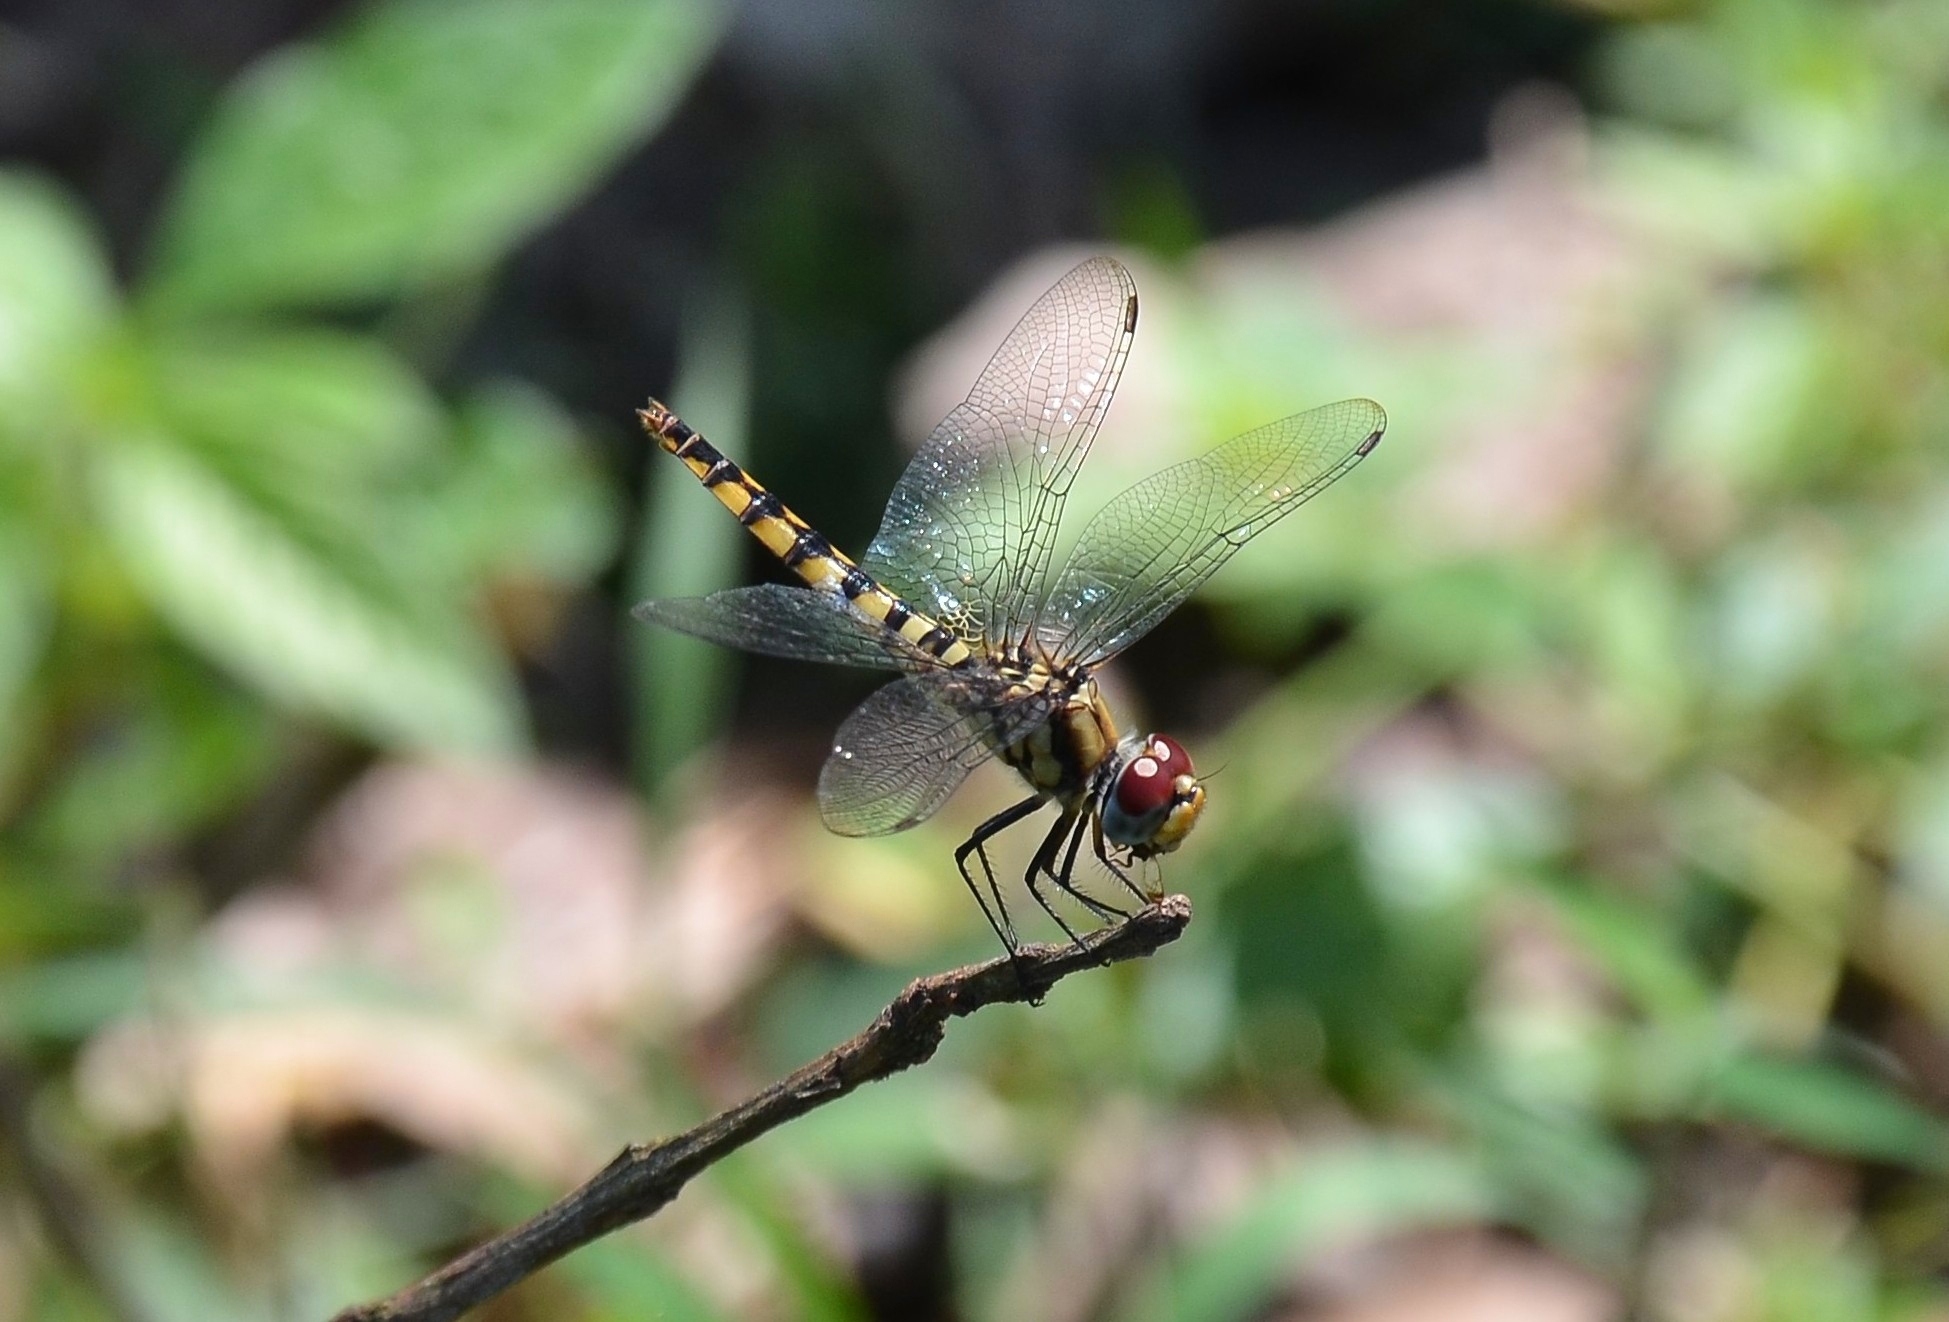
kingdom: Animalia
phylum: Arthropoda
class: Insecta
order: Odonata
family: Libellulidae
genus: Urothemis
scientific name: Urothemis signata
